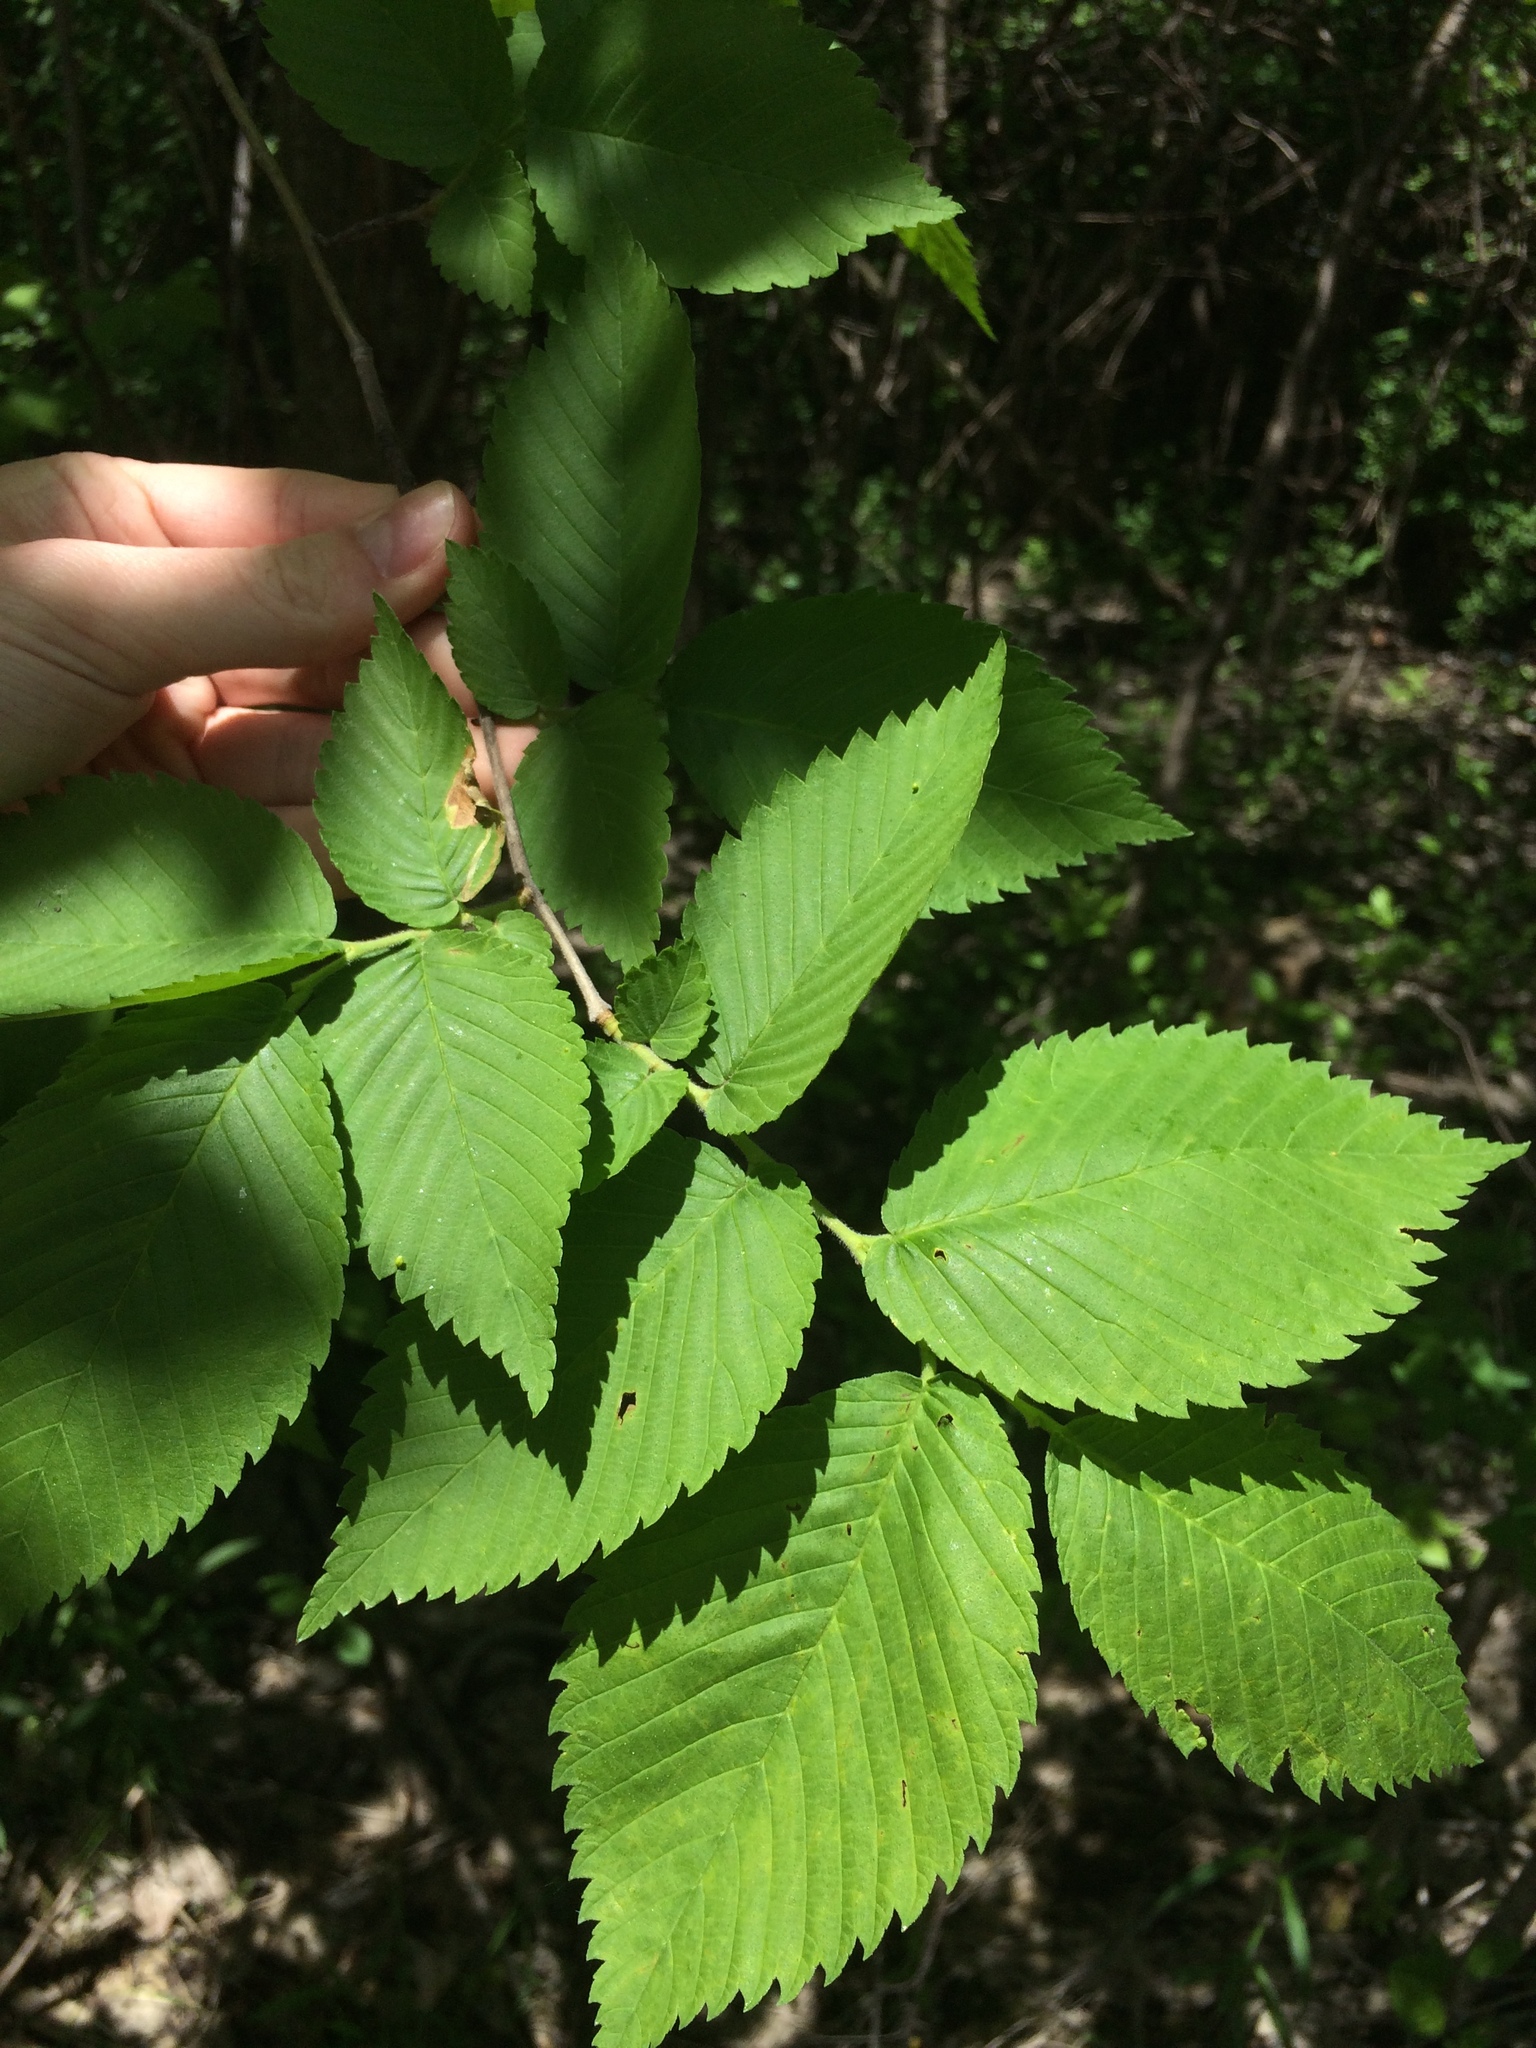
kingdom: Plantae
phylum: Tracheophyta
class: Magnoliopsida
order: Rosales
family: Ulmaceae
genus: Ulmus
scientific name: Ulmus americana
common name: American elm
